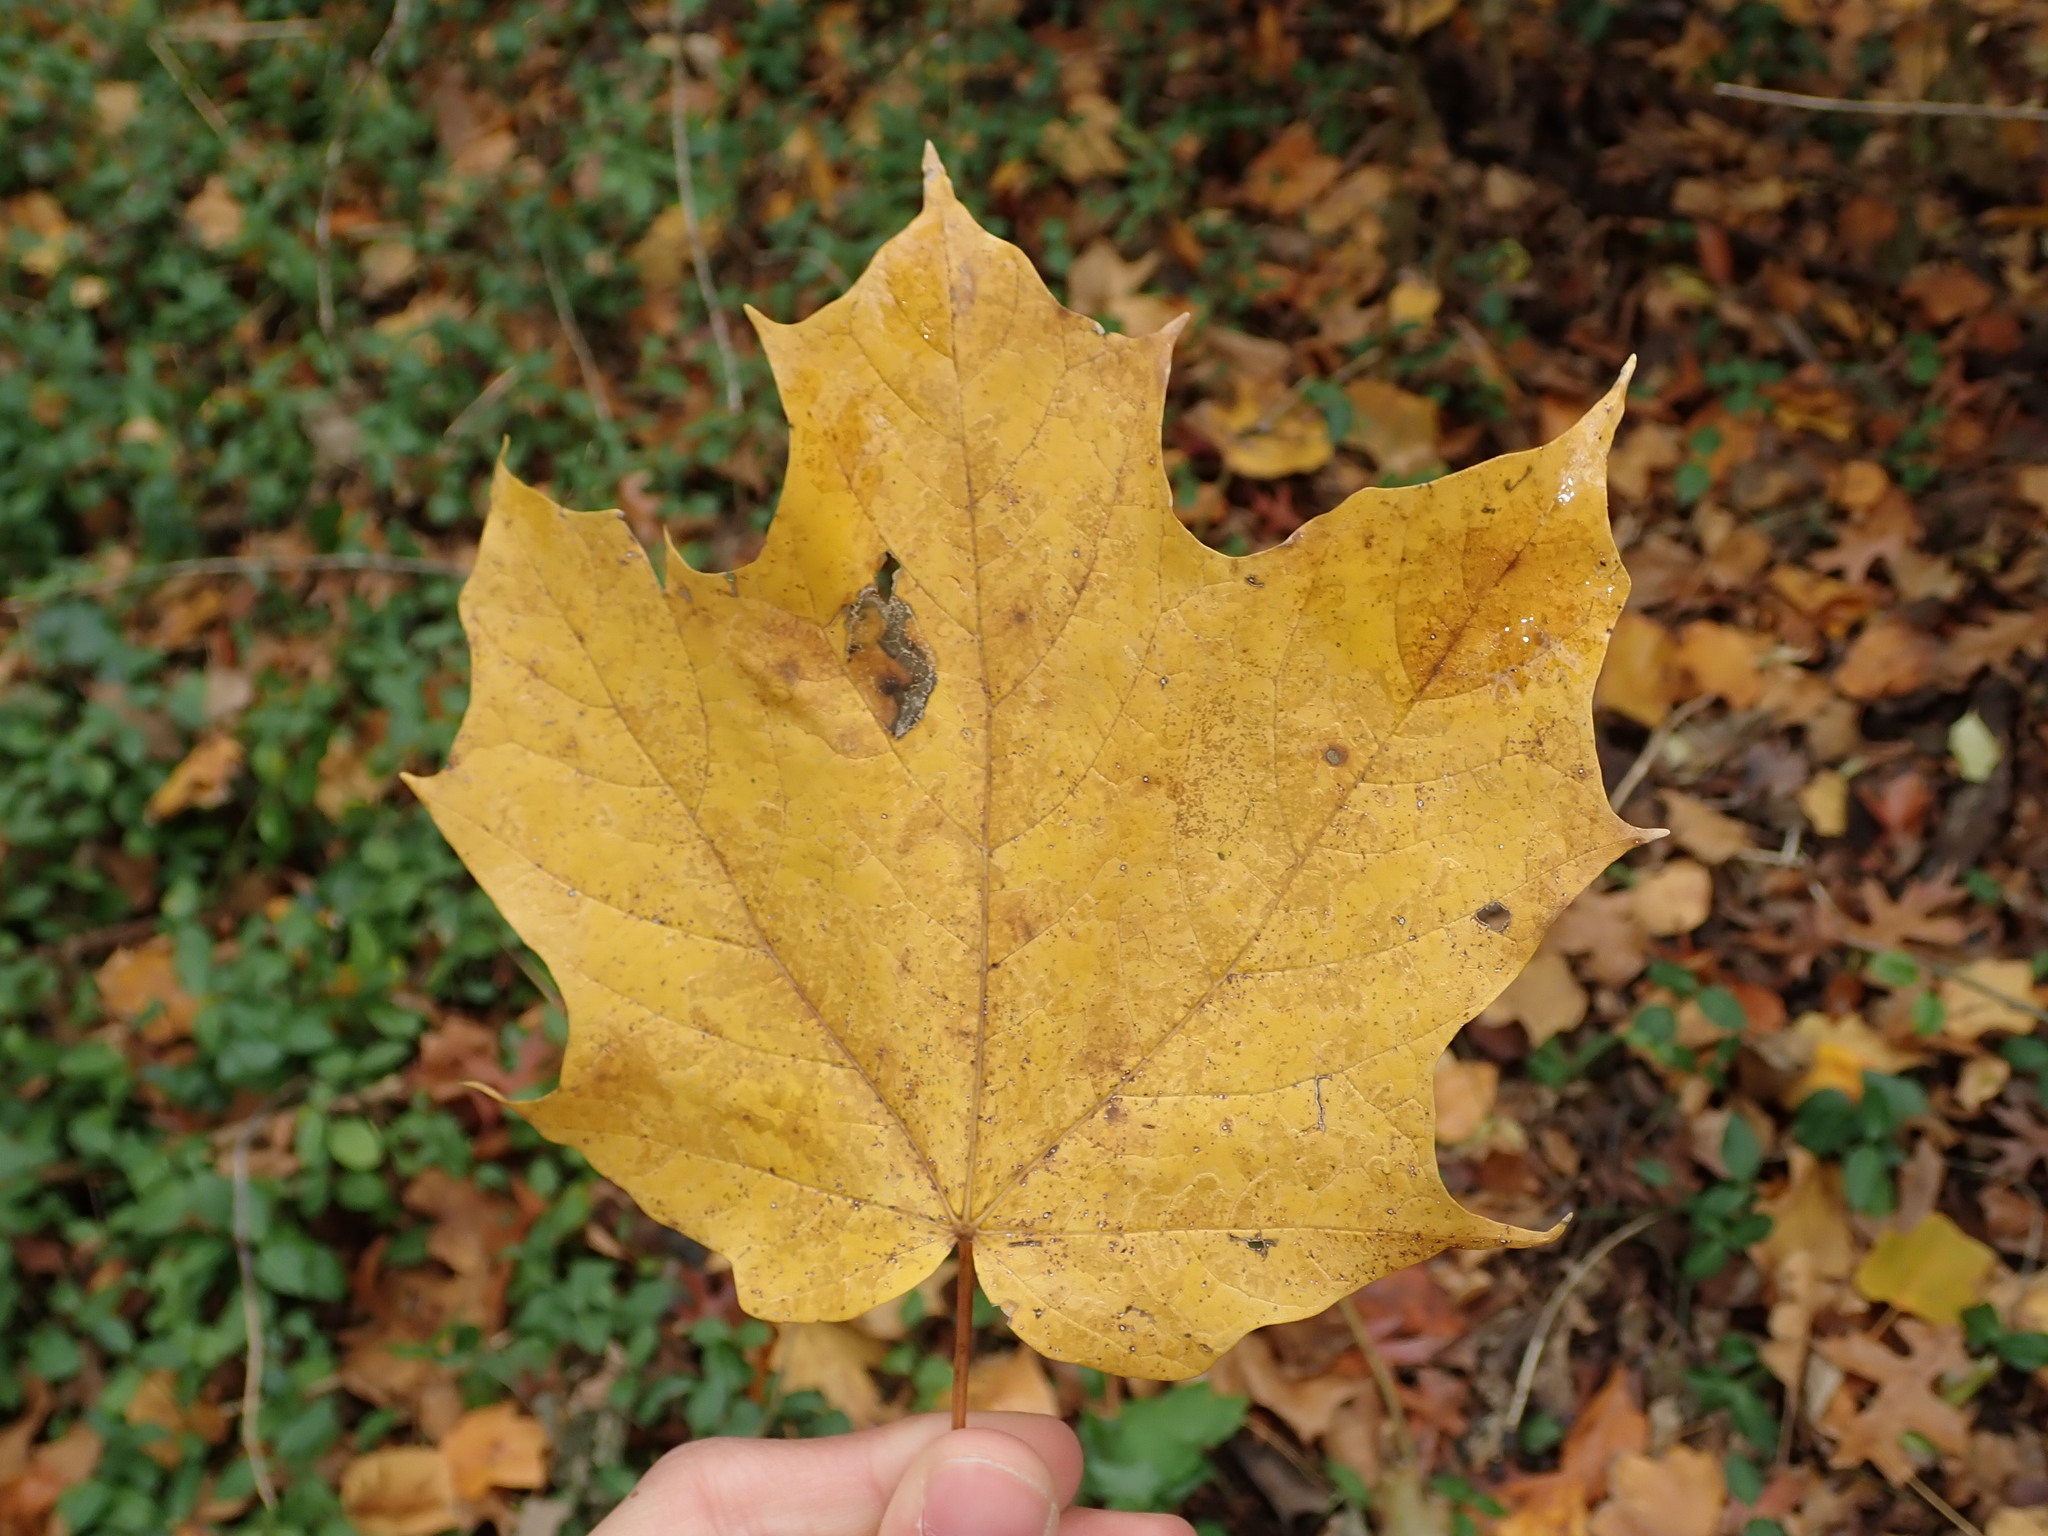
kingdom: Plantae
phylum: Tracheophyta
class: Magnoliopsida
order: Sapindales
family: Sapindaceae
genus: Acer
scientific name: Acer saccharum
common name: Sugar maple
